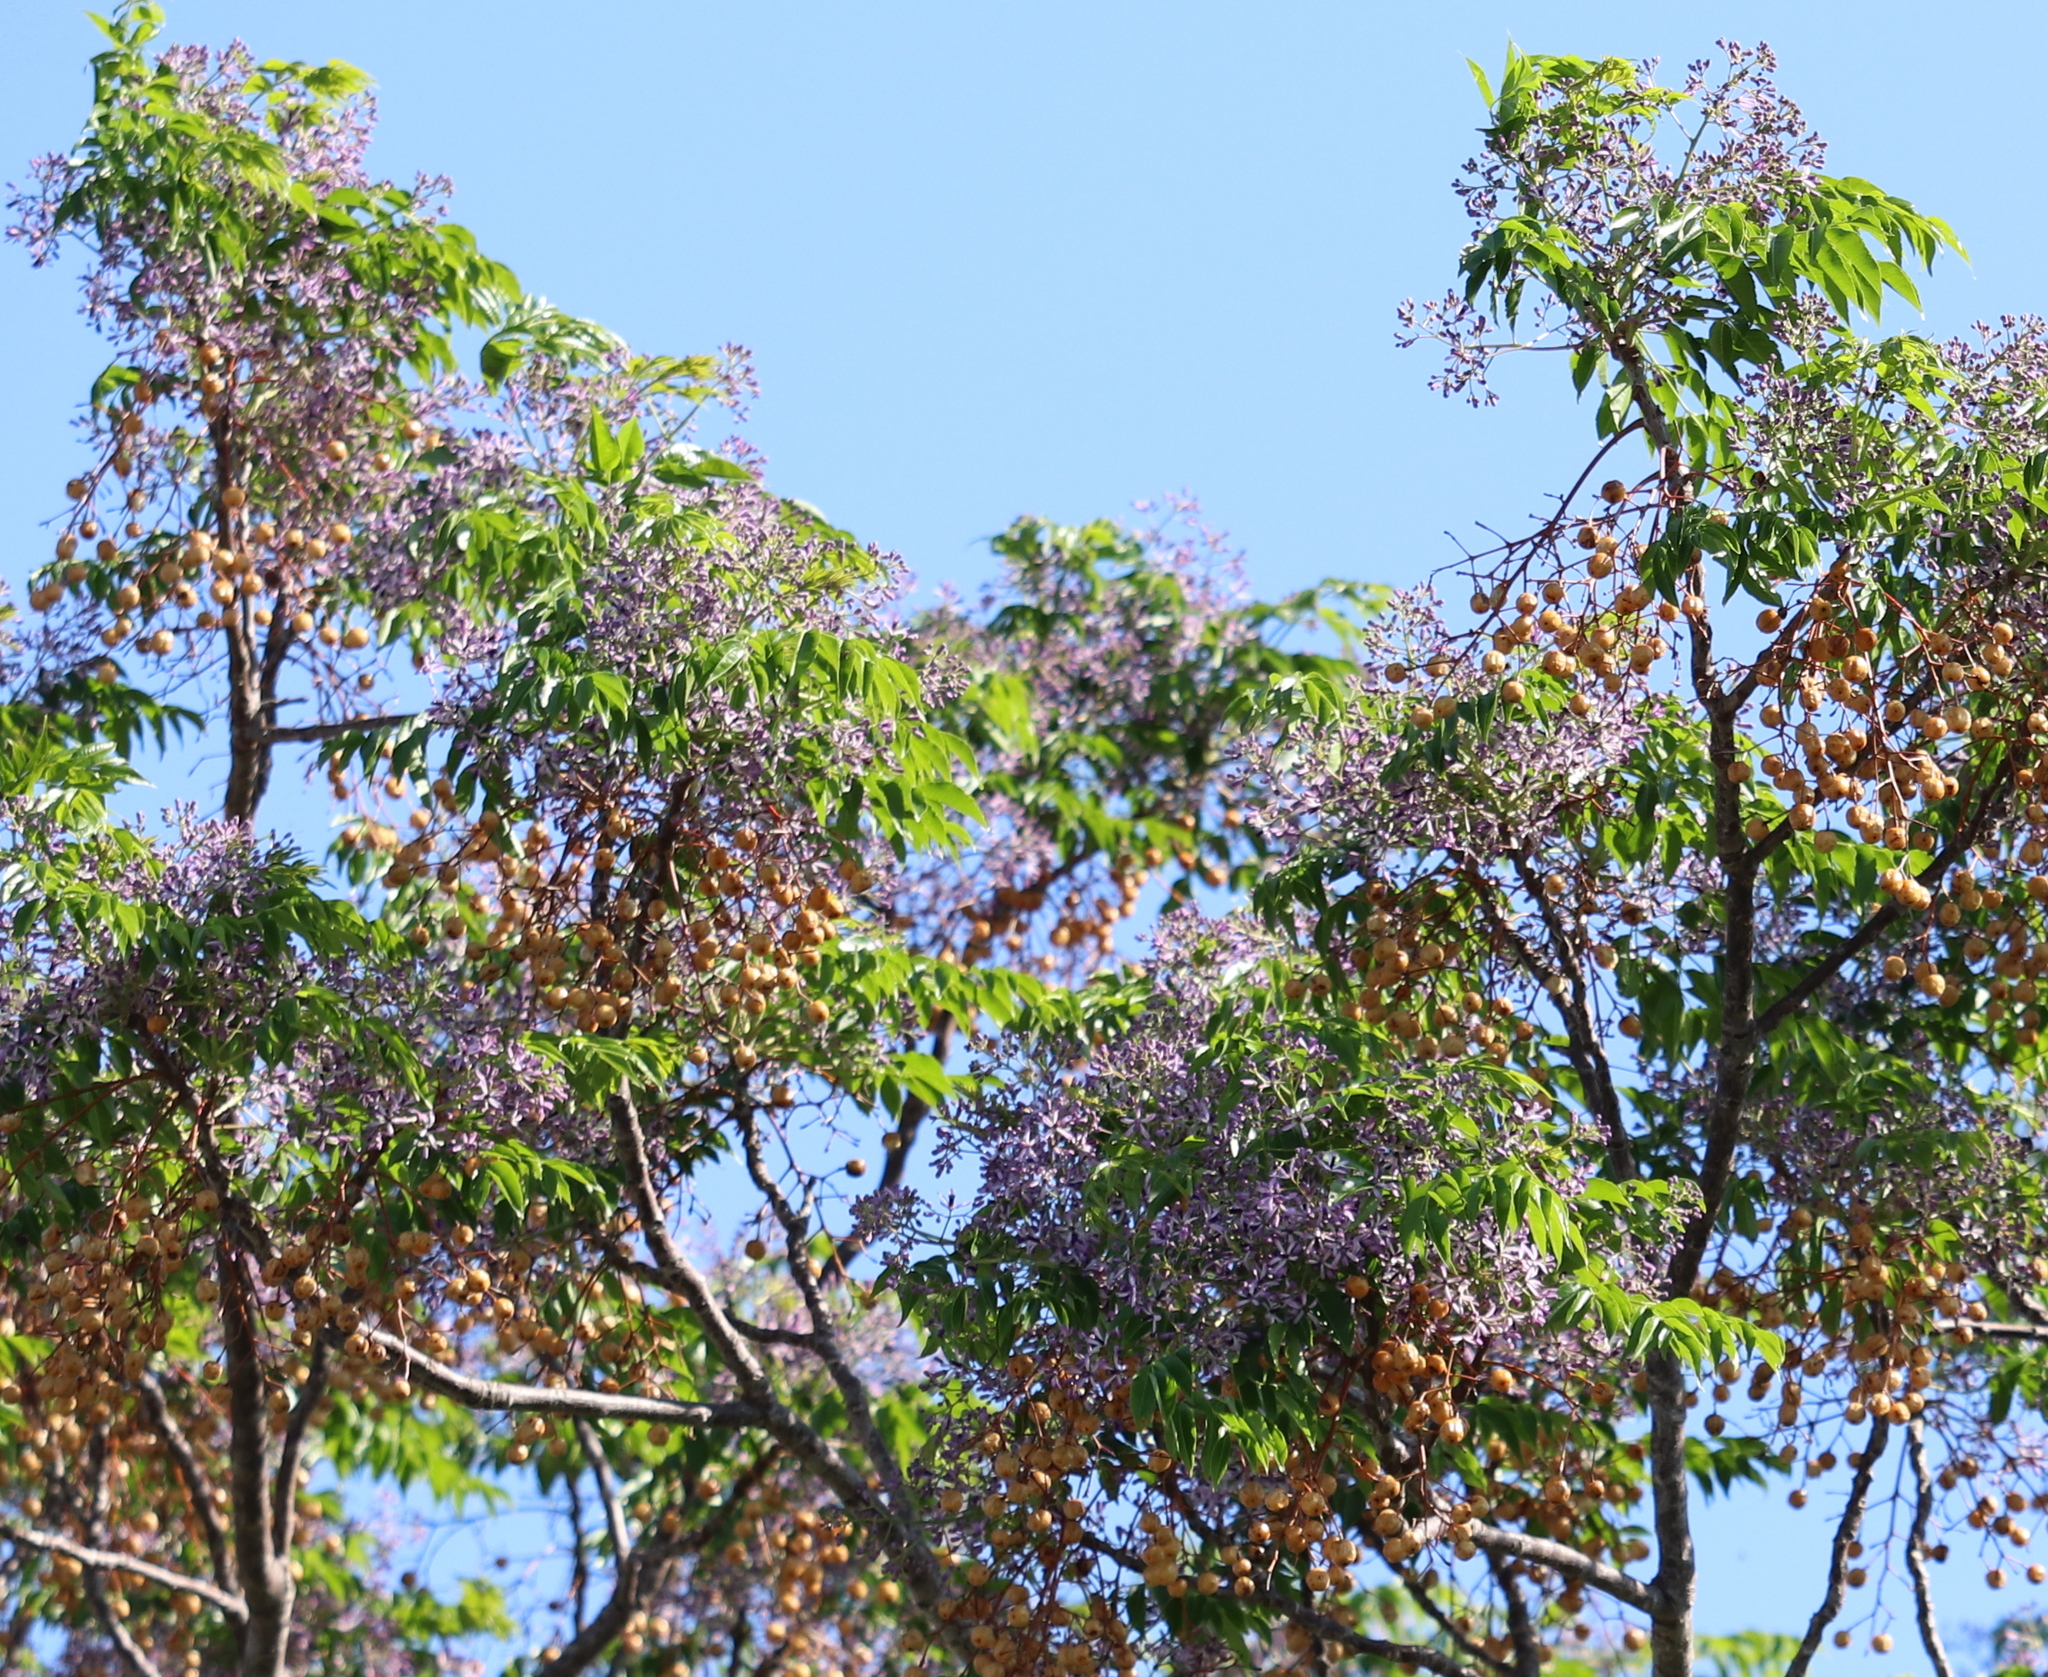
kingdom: Plantae
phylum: Tracheophyta
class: Magnoliopsida
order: Sapindales
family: Meliaceae
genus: Melia
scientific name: Melia azedarach
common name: Chinaberrytree
